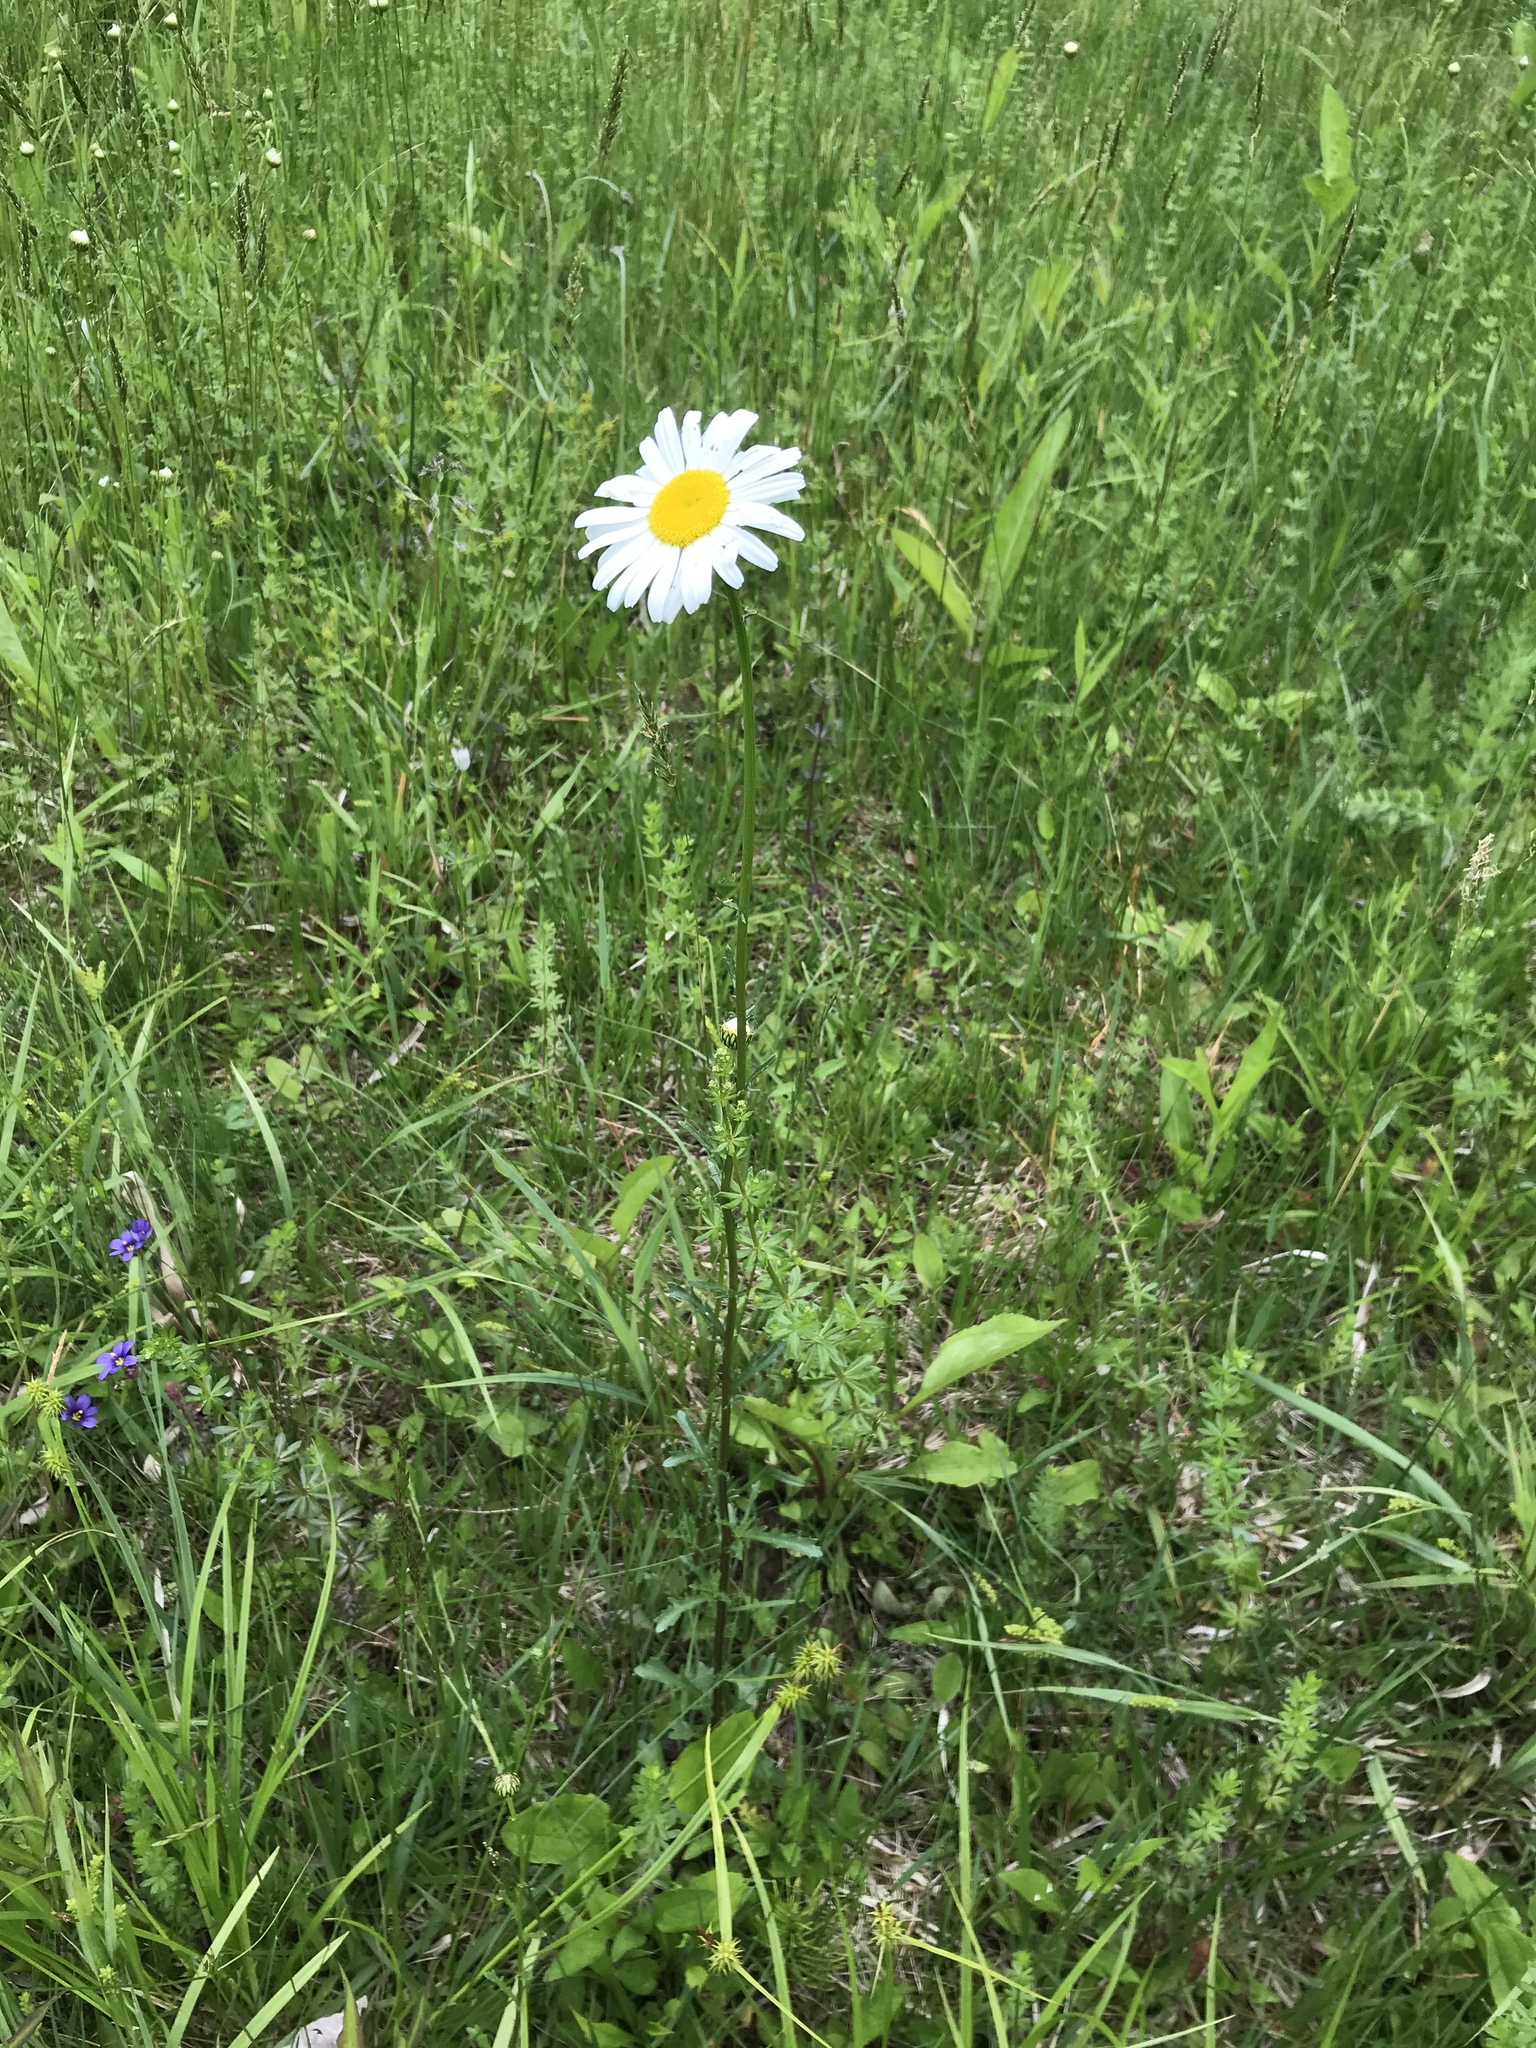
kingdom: Plantae
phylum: Tracheophyta
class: Magnoliopsida
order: Asterales
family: Asteraceae
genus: Leucanthemum
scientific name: Leucanthemum vulgare
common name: Oxeye daisy
